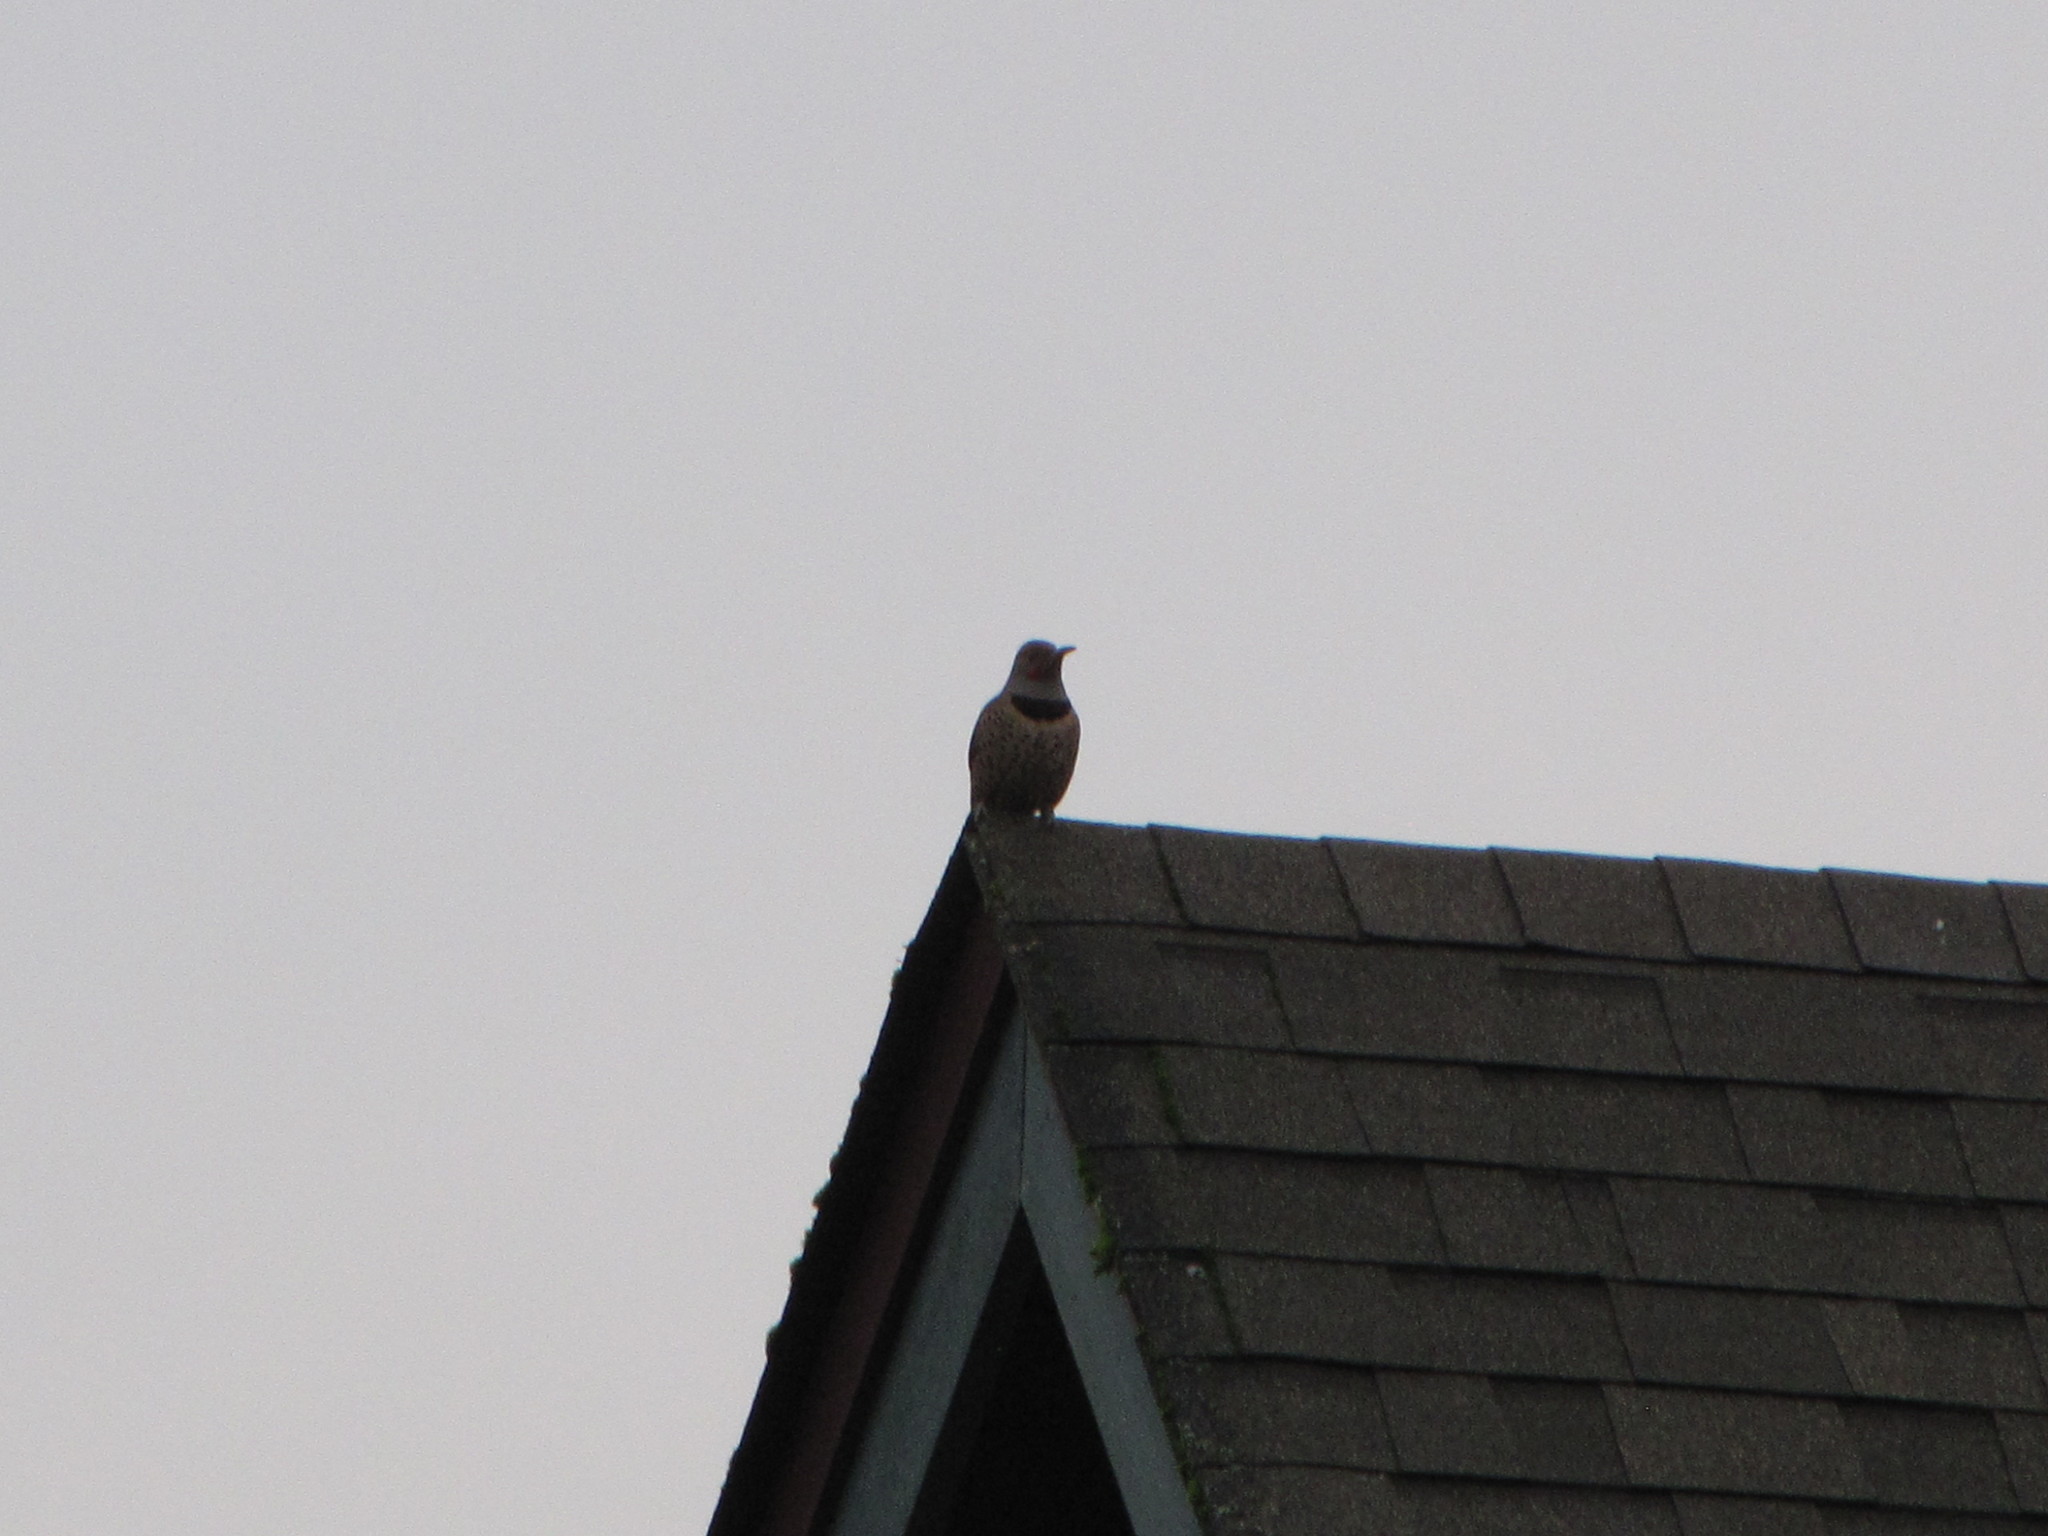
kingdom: Animalia
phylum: Chordata
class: Aves
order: Piciformes
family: Picidae
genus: Colaptes
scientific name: Colaptes auratus
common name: Northern flicker
